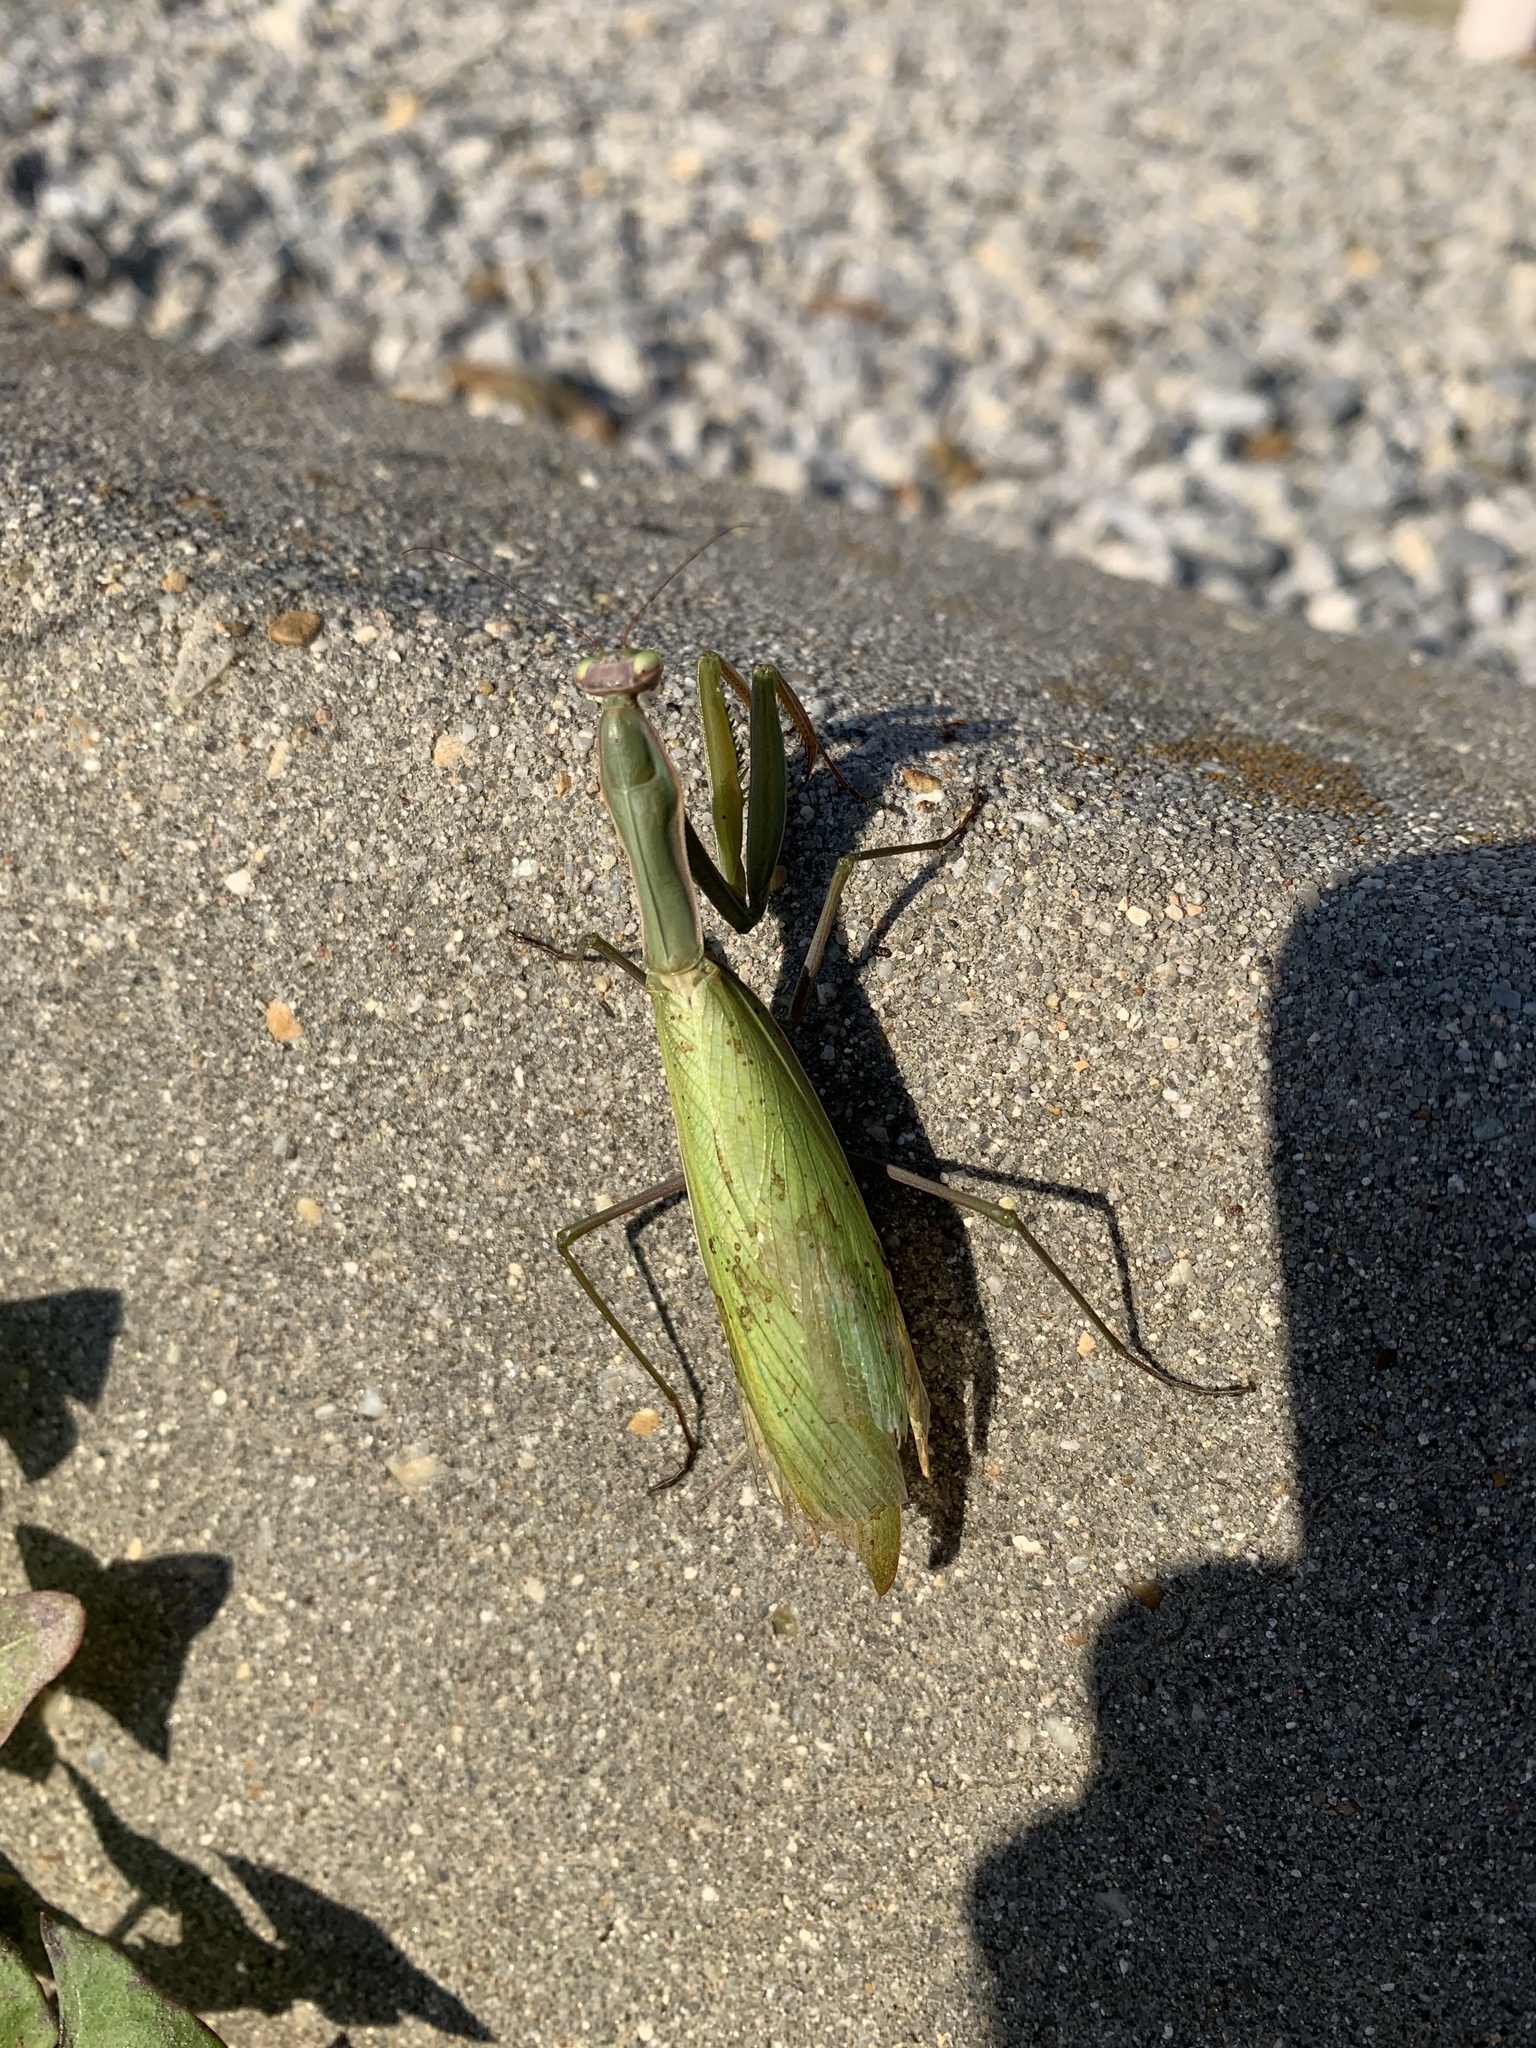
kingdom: Animalia
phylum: Arthropoda
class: Insecta
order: Mantodea
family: Mantidae
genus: Mantis
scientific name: Mantis religiosa
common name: Praying mantis
